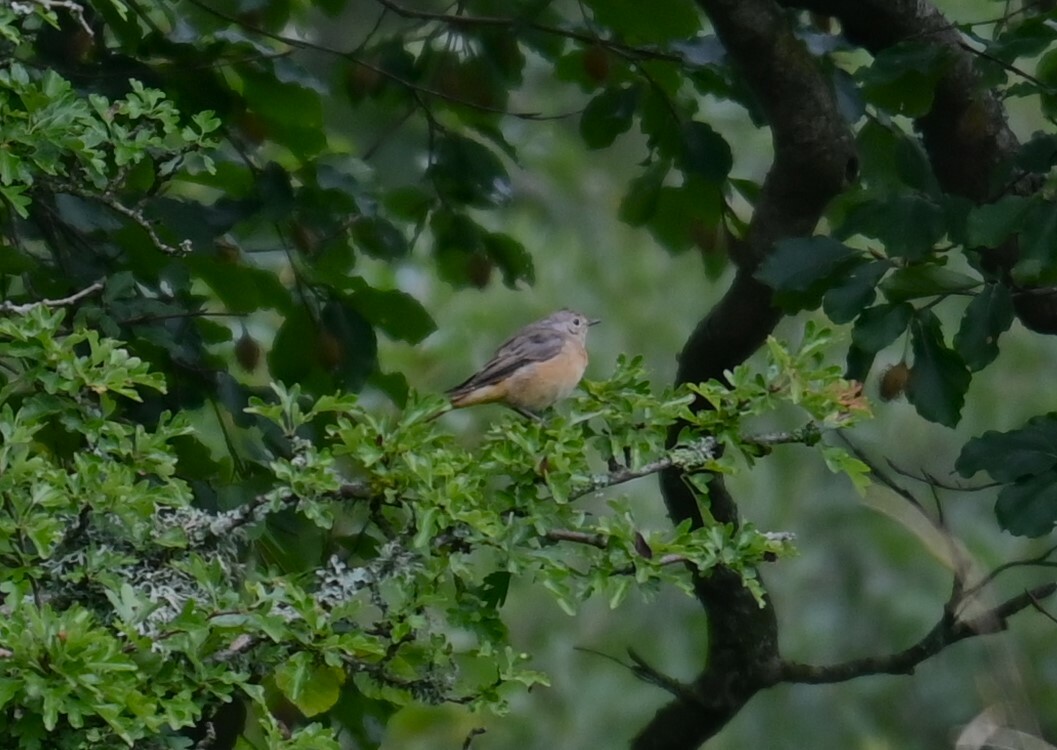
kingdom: Animalia
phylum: Chordata
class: Aves
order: Passeriformes
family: Muscicapidae
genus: Phoenicurus
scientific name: Phoenicurus phoenicurus
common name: Common redstart
